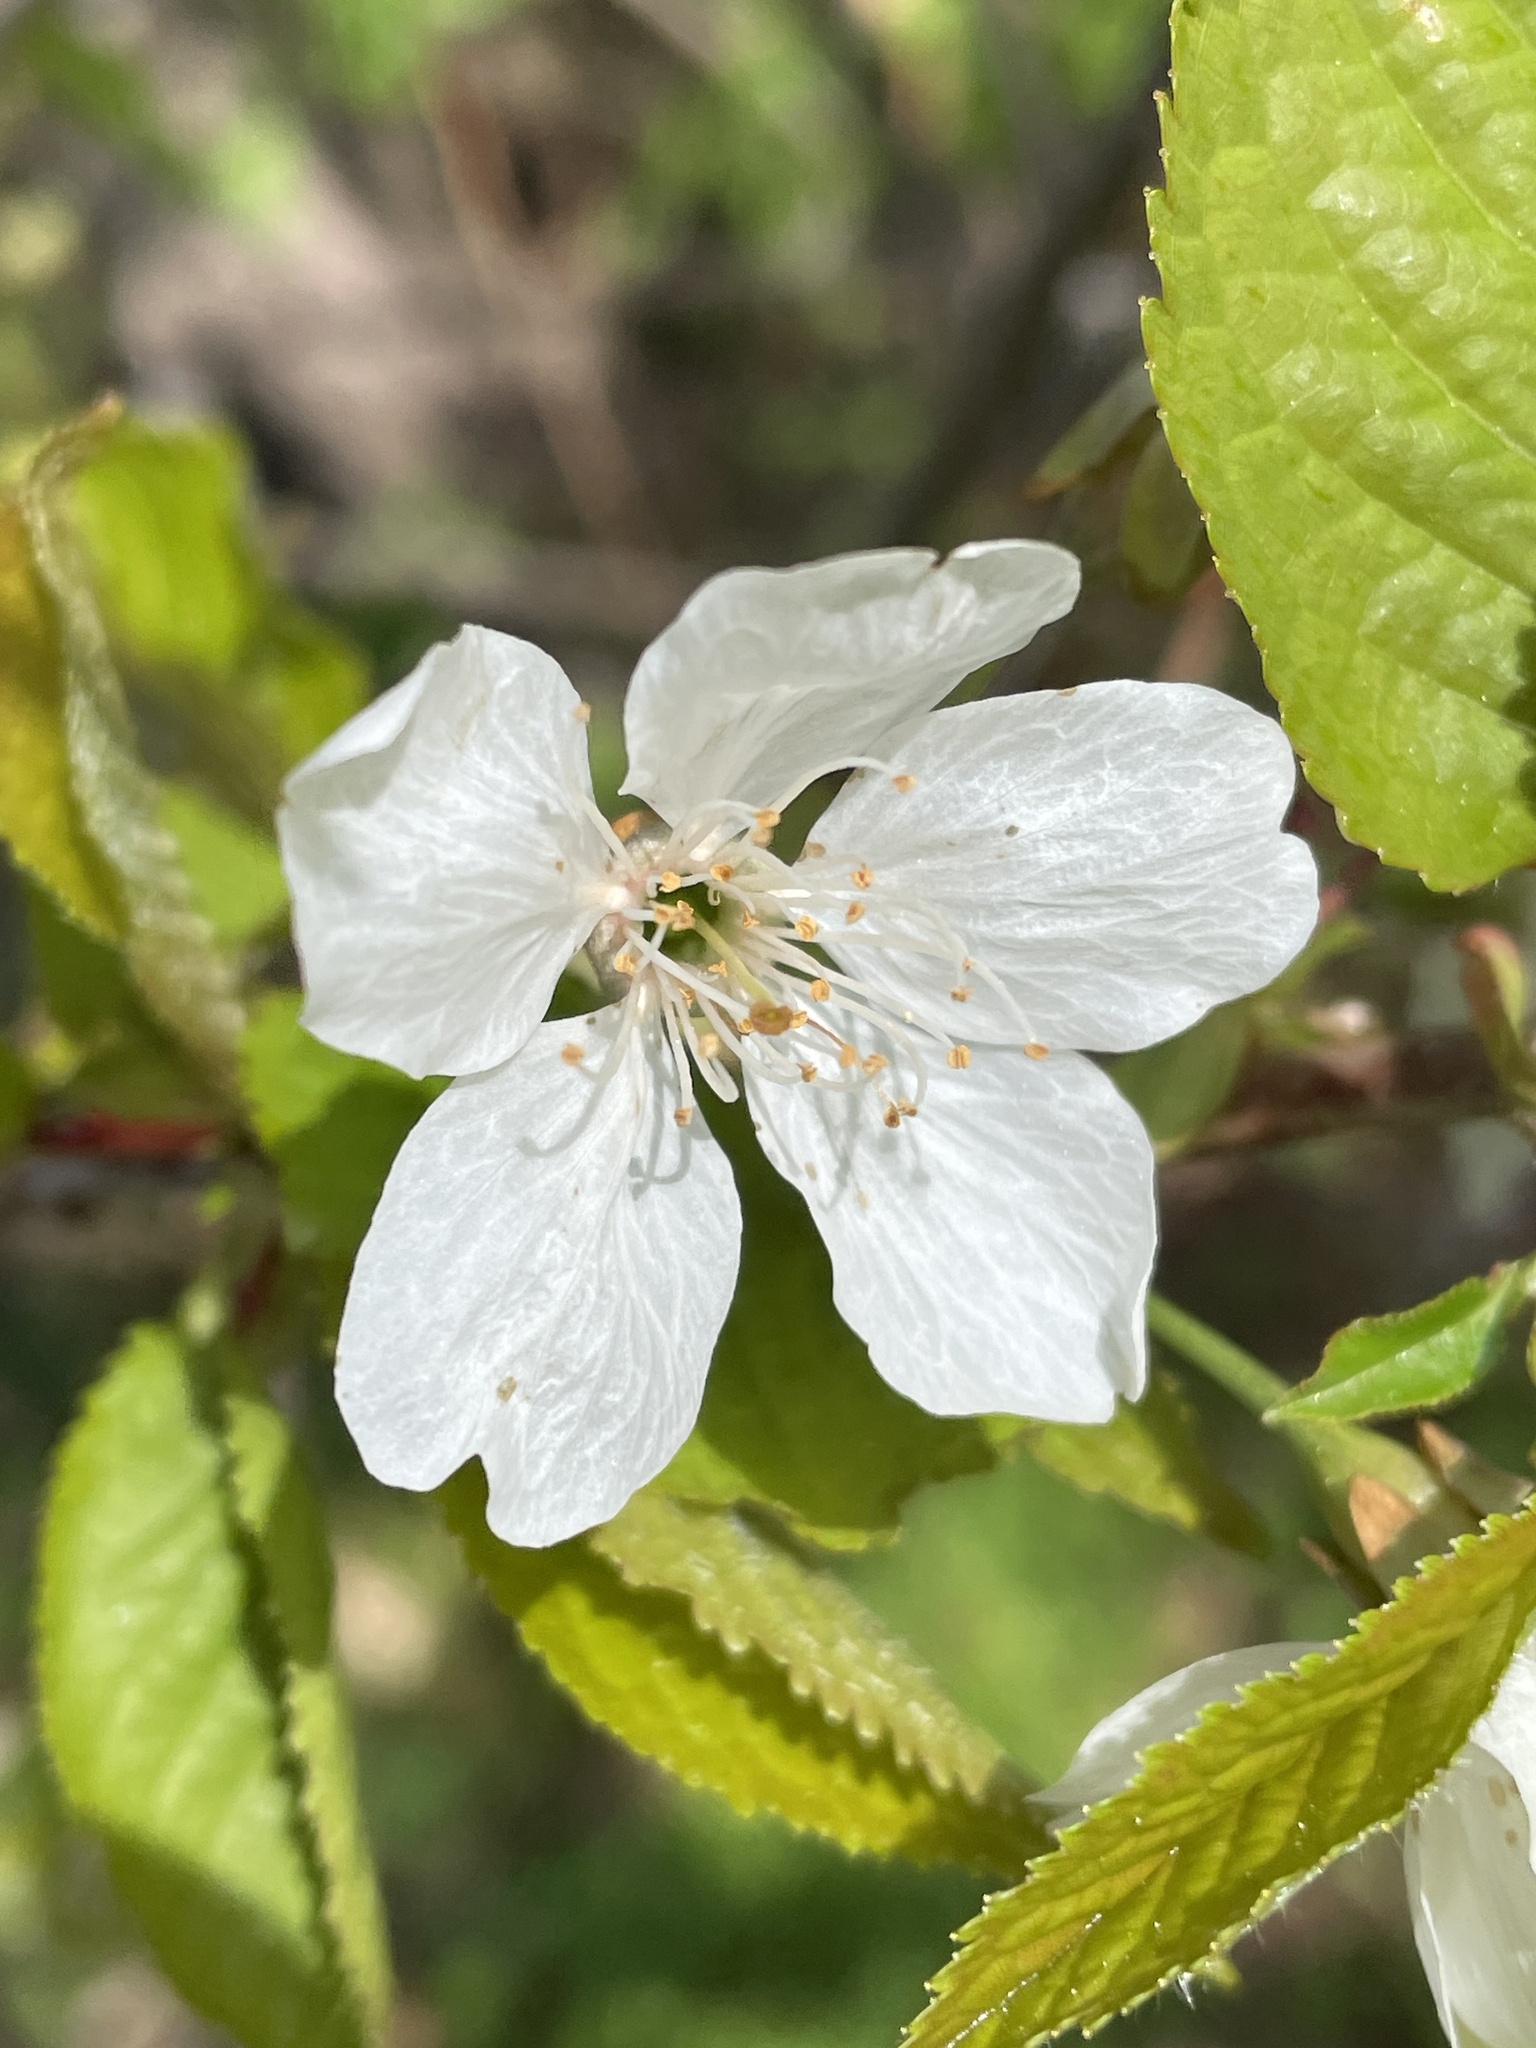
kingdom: Plantae
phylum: Tracheophyta
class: Magnoliopsida
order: Rosales
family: Rosaceae
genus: Prunus
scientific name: Prunus avium
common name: Sweet cherry
